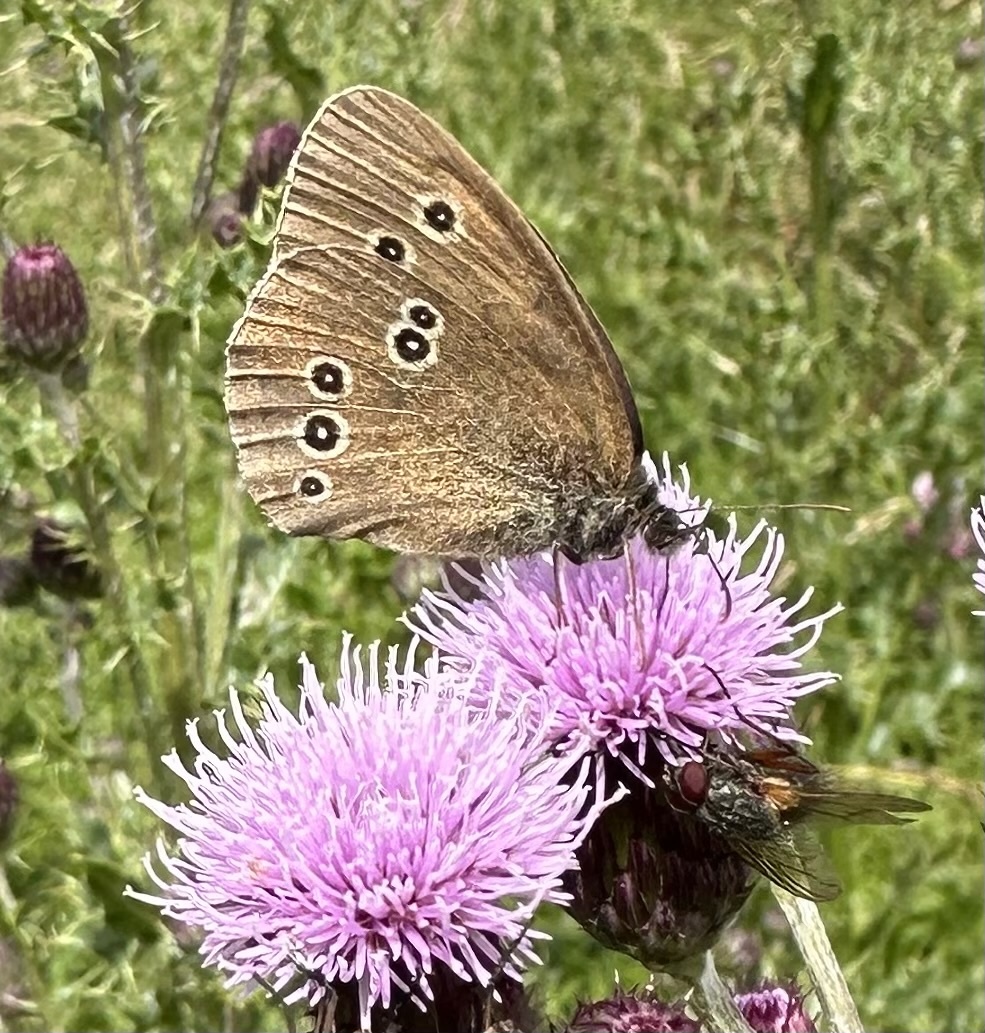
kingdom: Animalia
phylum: Arthropoda
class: Insecta
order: Lepidoptera
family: Nymphalidae
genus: Aphantopus
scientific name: Aphantopus hyperantus
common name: Ringlet
